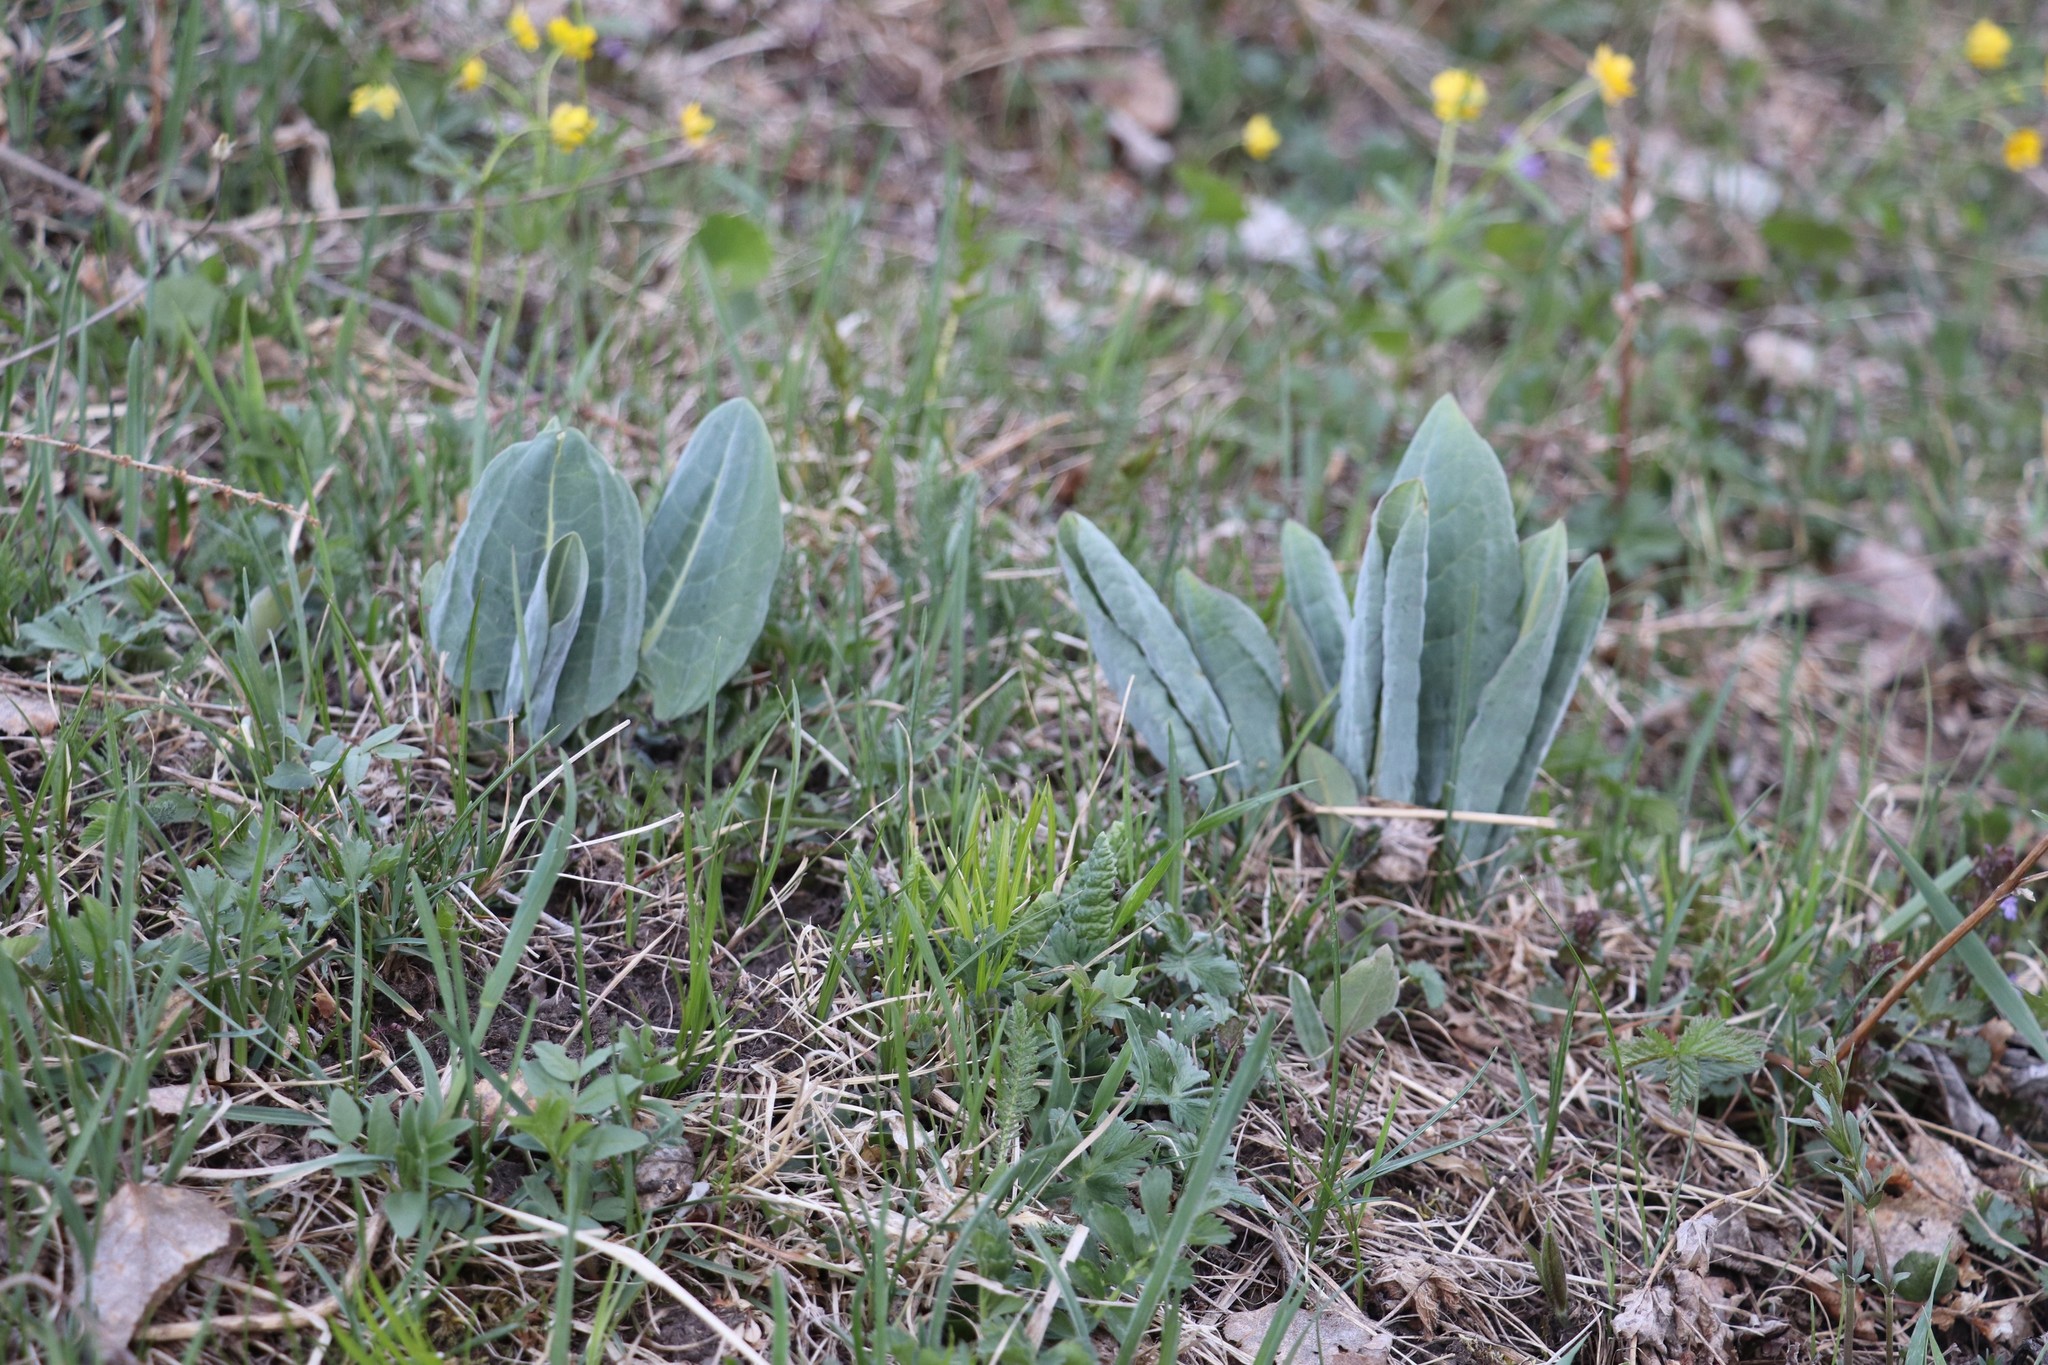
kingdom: Plantae
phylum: Tracheophyta
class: Magnoliopsida
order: Asterales
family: Asteraceae
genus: Ligularia
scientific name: Ligularia glauca
